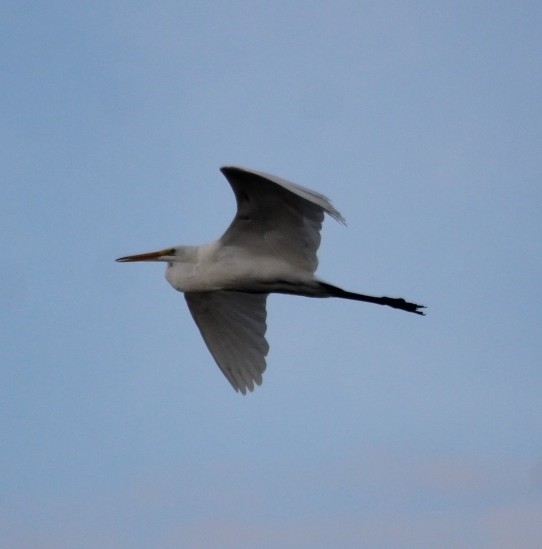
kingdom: Animalia
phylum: Chordata
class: Aves
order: Pelecaniformes
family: Ardeidae
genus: Ardea
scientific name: Ardea alba
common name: Great egret
